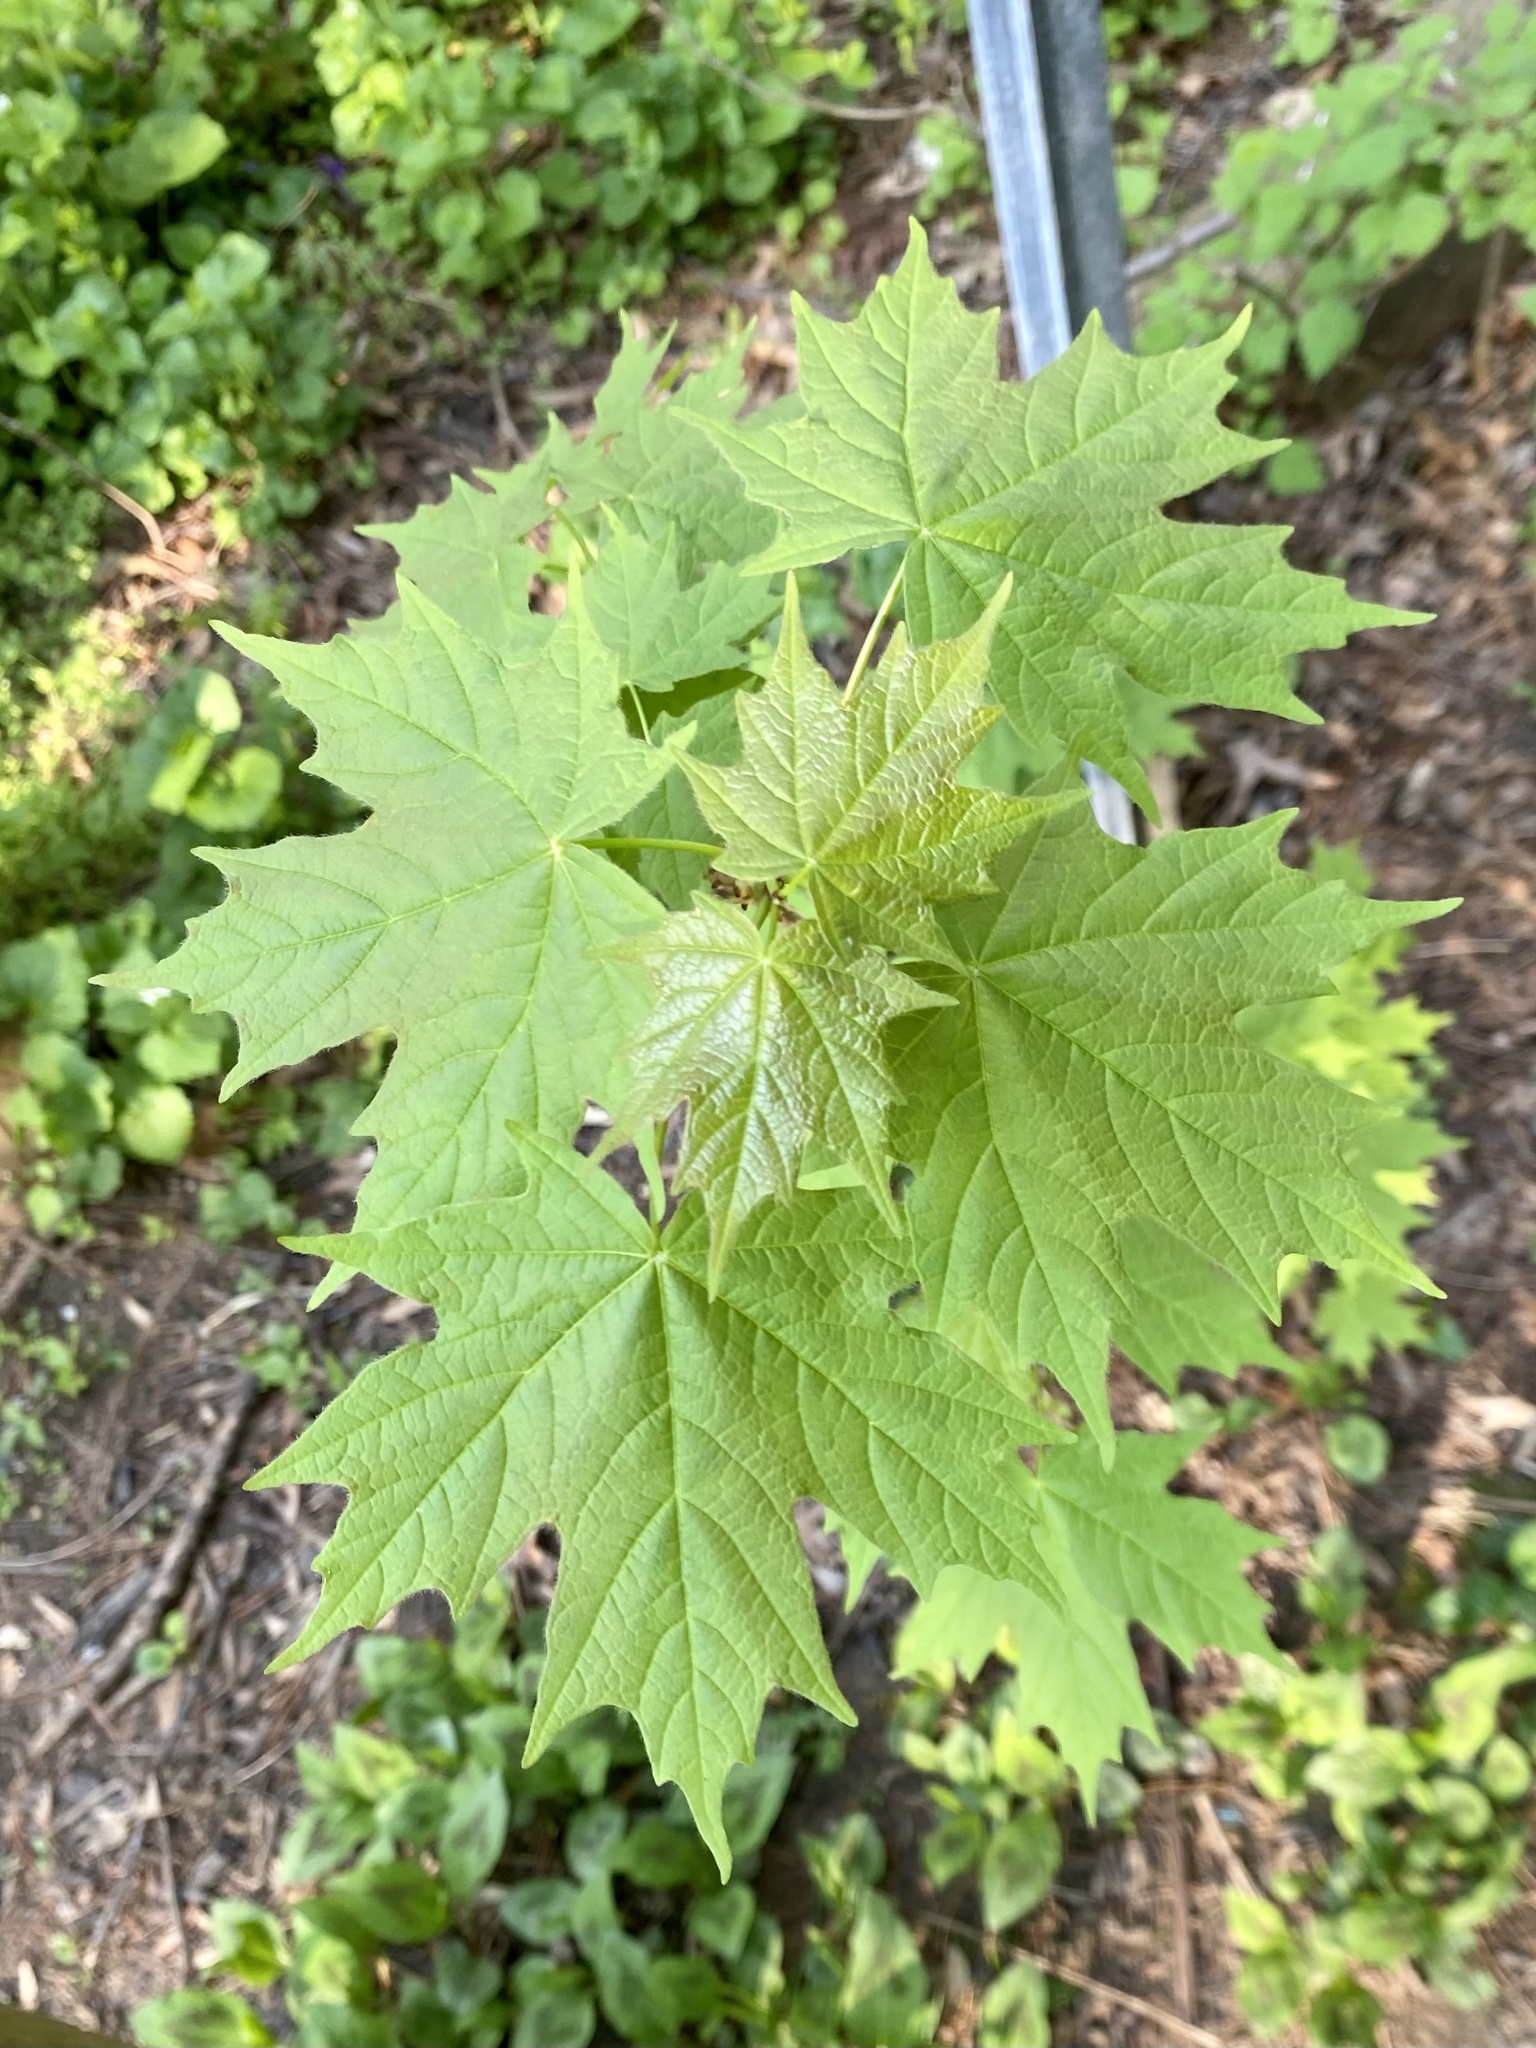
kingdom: Plantae
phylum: Tracheophyta
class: Magnoliopsida
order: Sapindales
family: Sapindaceae
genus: Acer
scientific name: Acer saccharum
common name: Sugar maple
